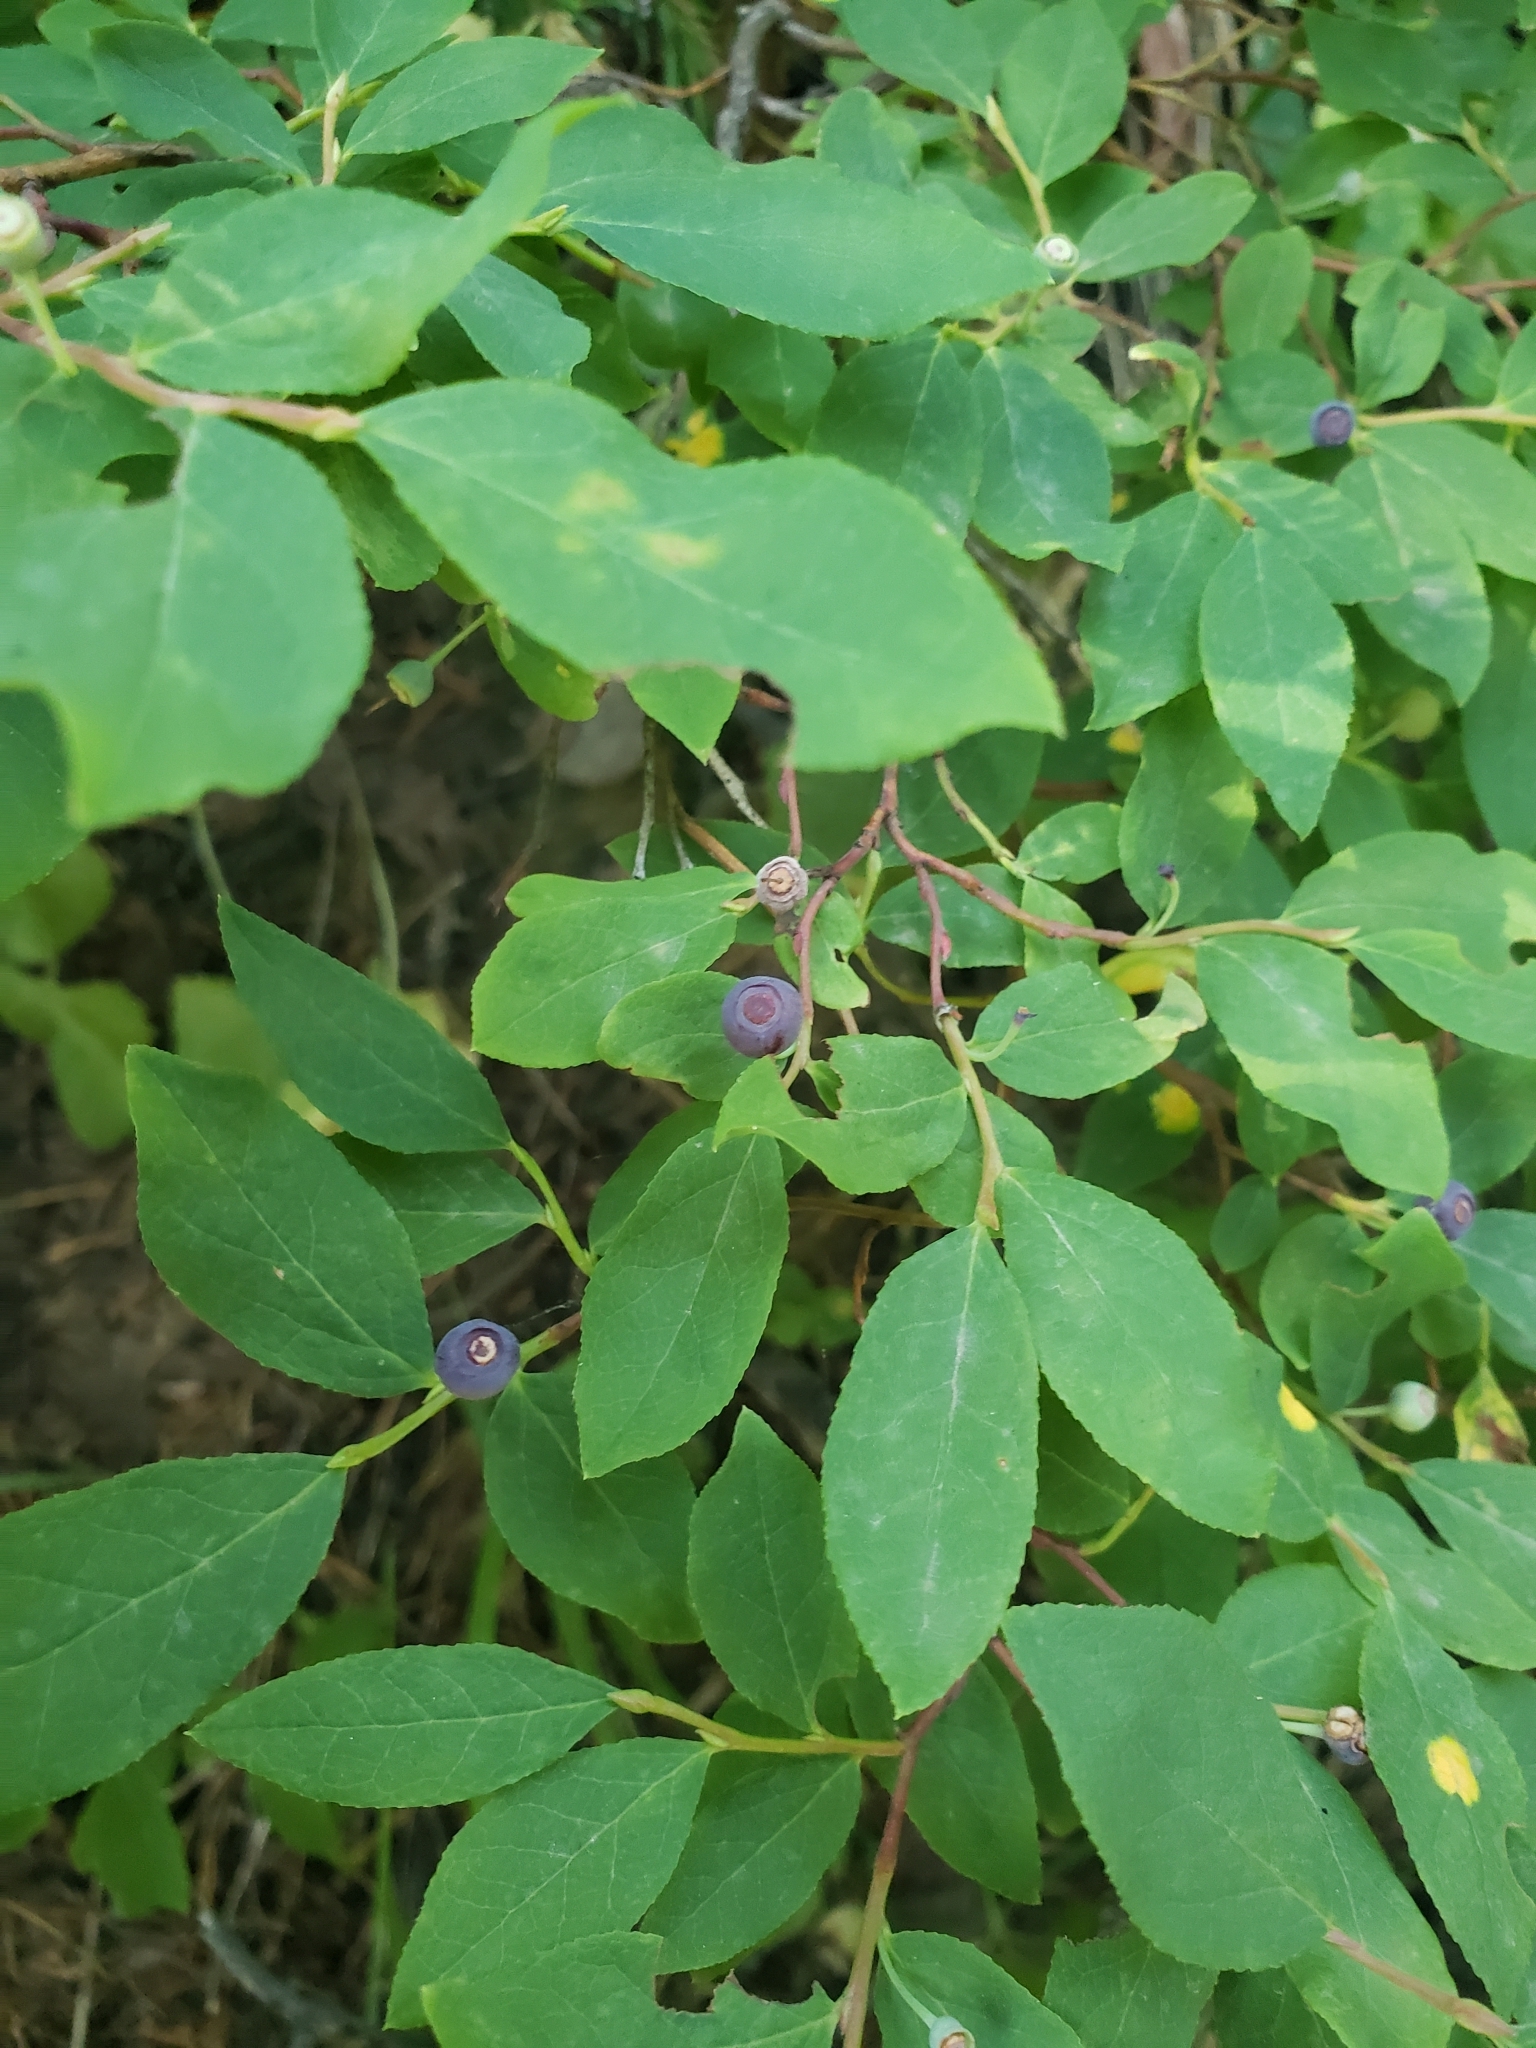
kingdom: Plantae
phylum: Tracheophyta
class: Magnoliopsida
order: Ericales
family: Ericaceae
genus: Vaccinium
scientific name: Vaccinium membranaceum
